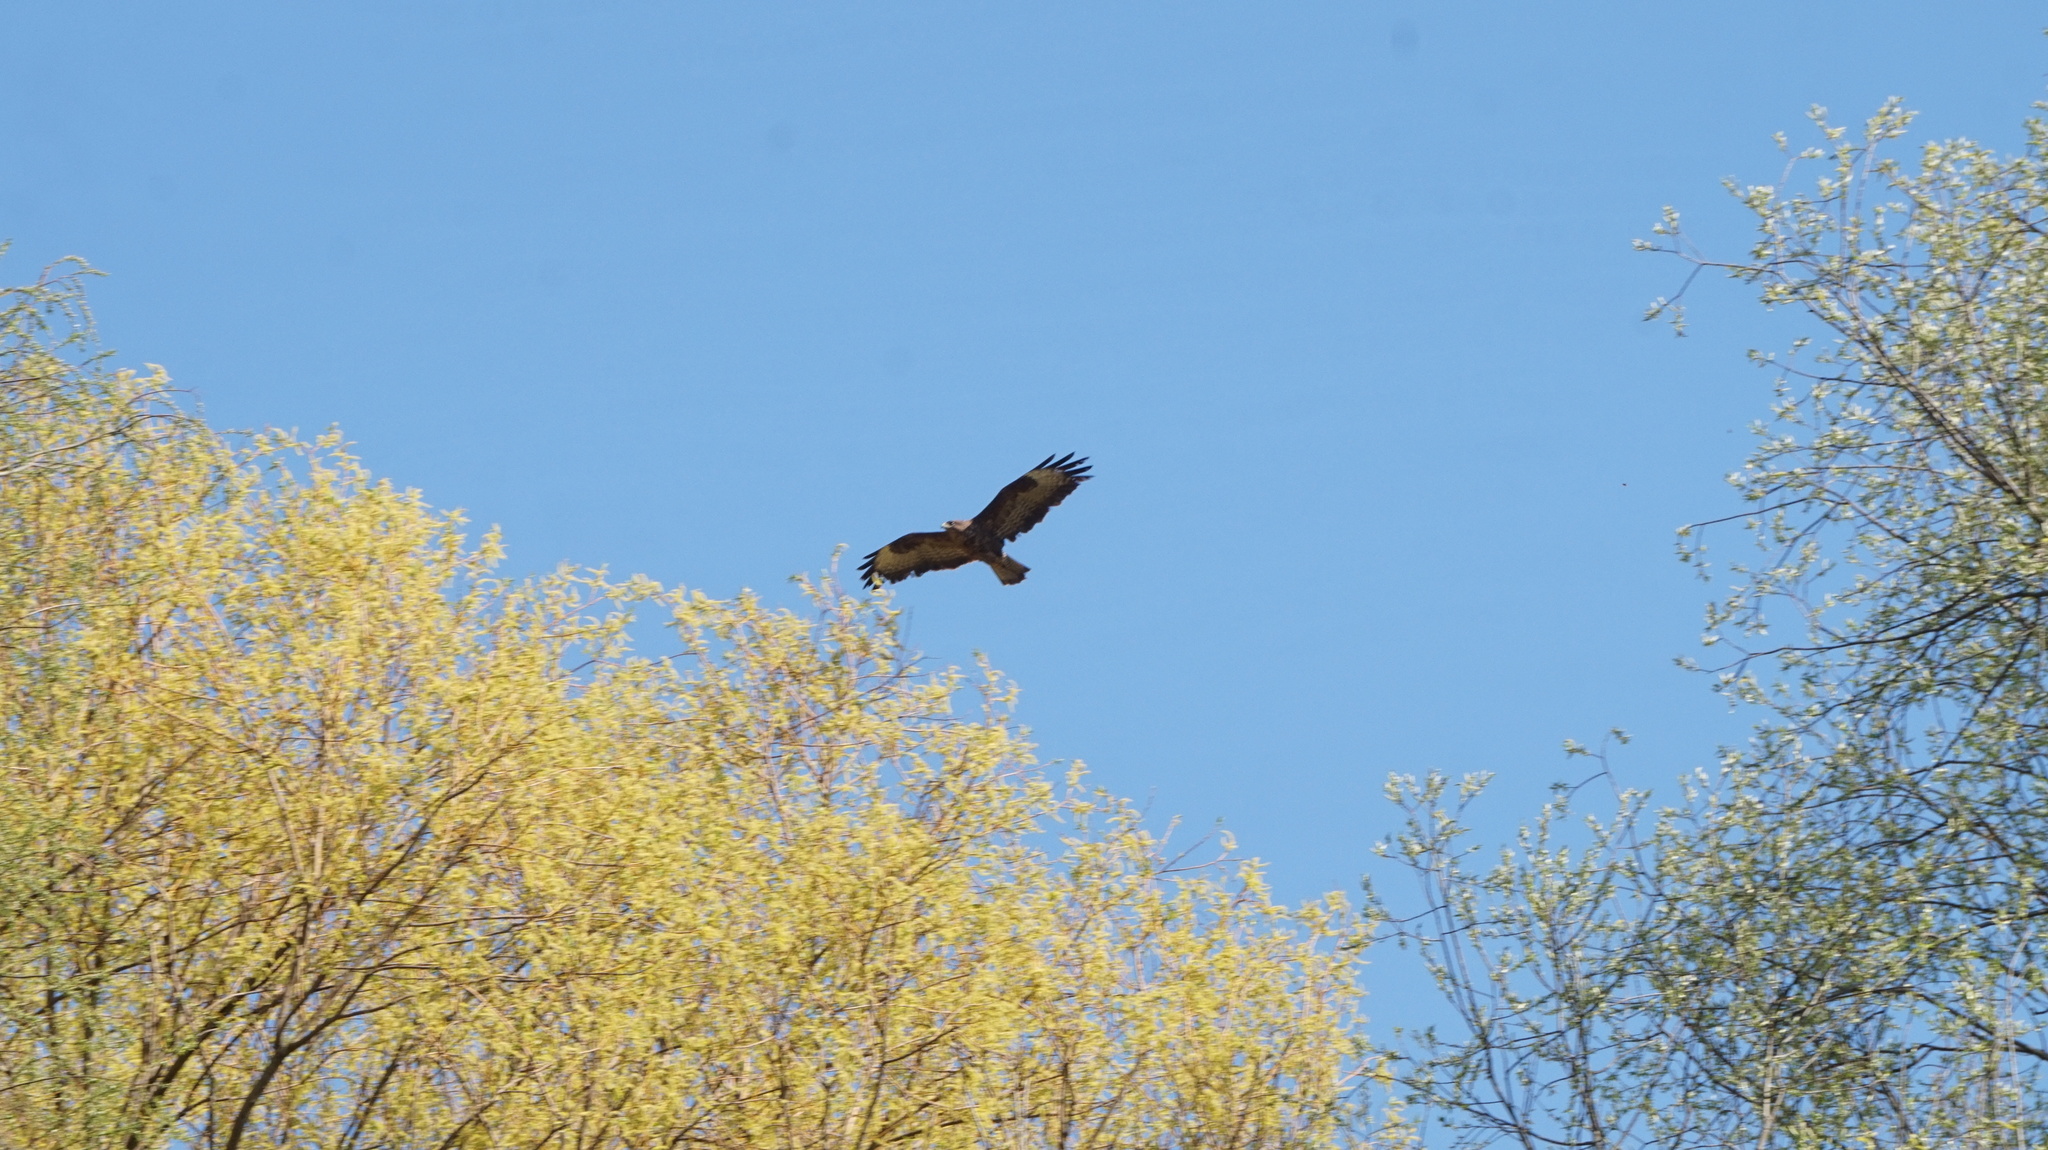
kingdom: Animalia
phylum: Chordata
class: Aves
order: Accipitriformes
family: Accipitridae
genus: Buteo
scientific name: Buteo buteo
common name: Common buzzard
